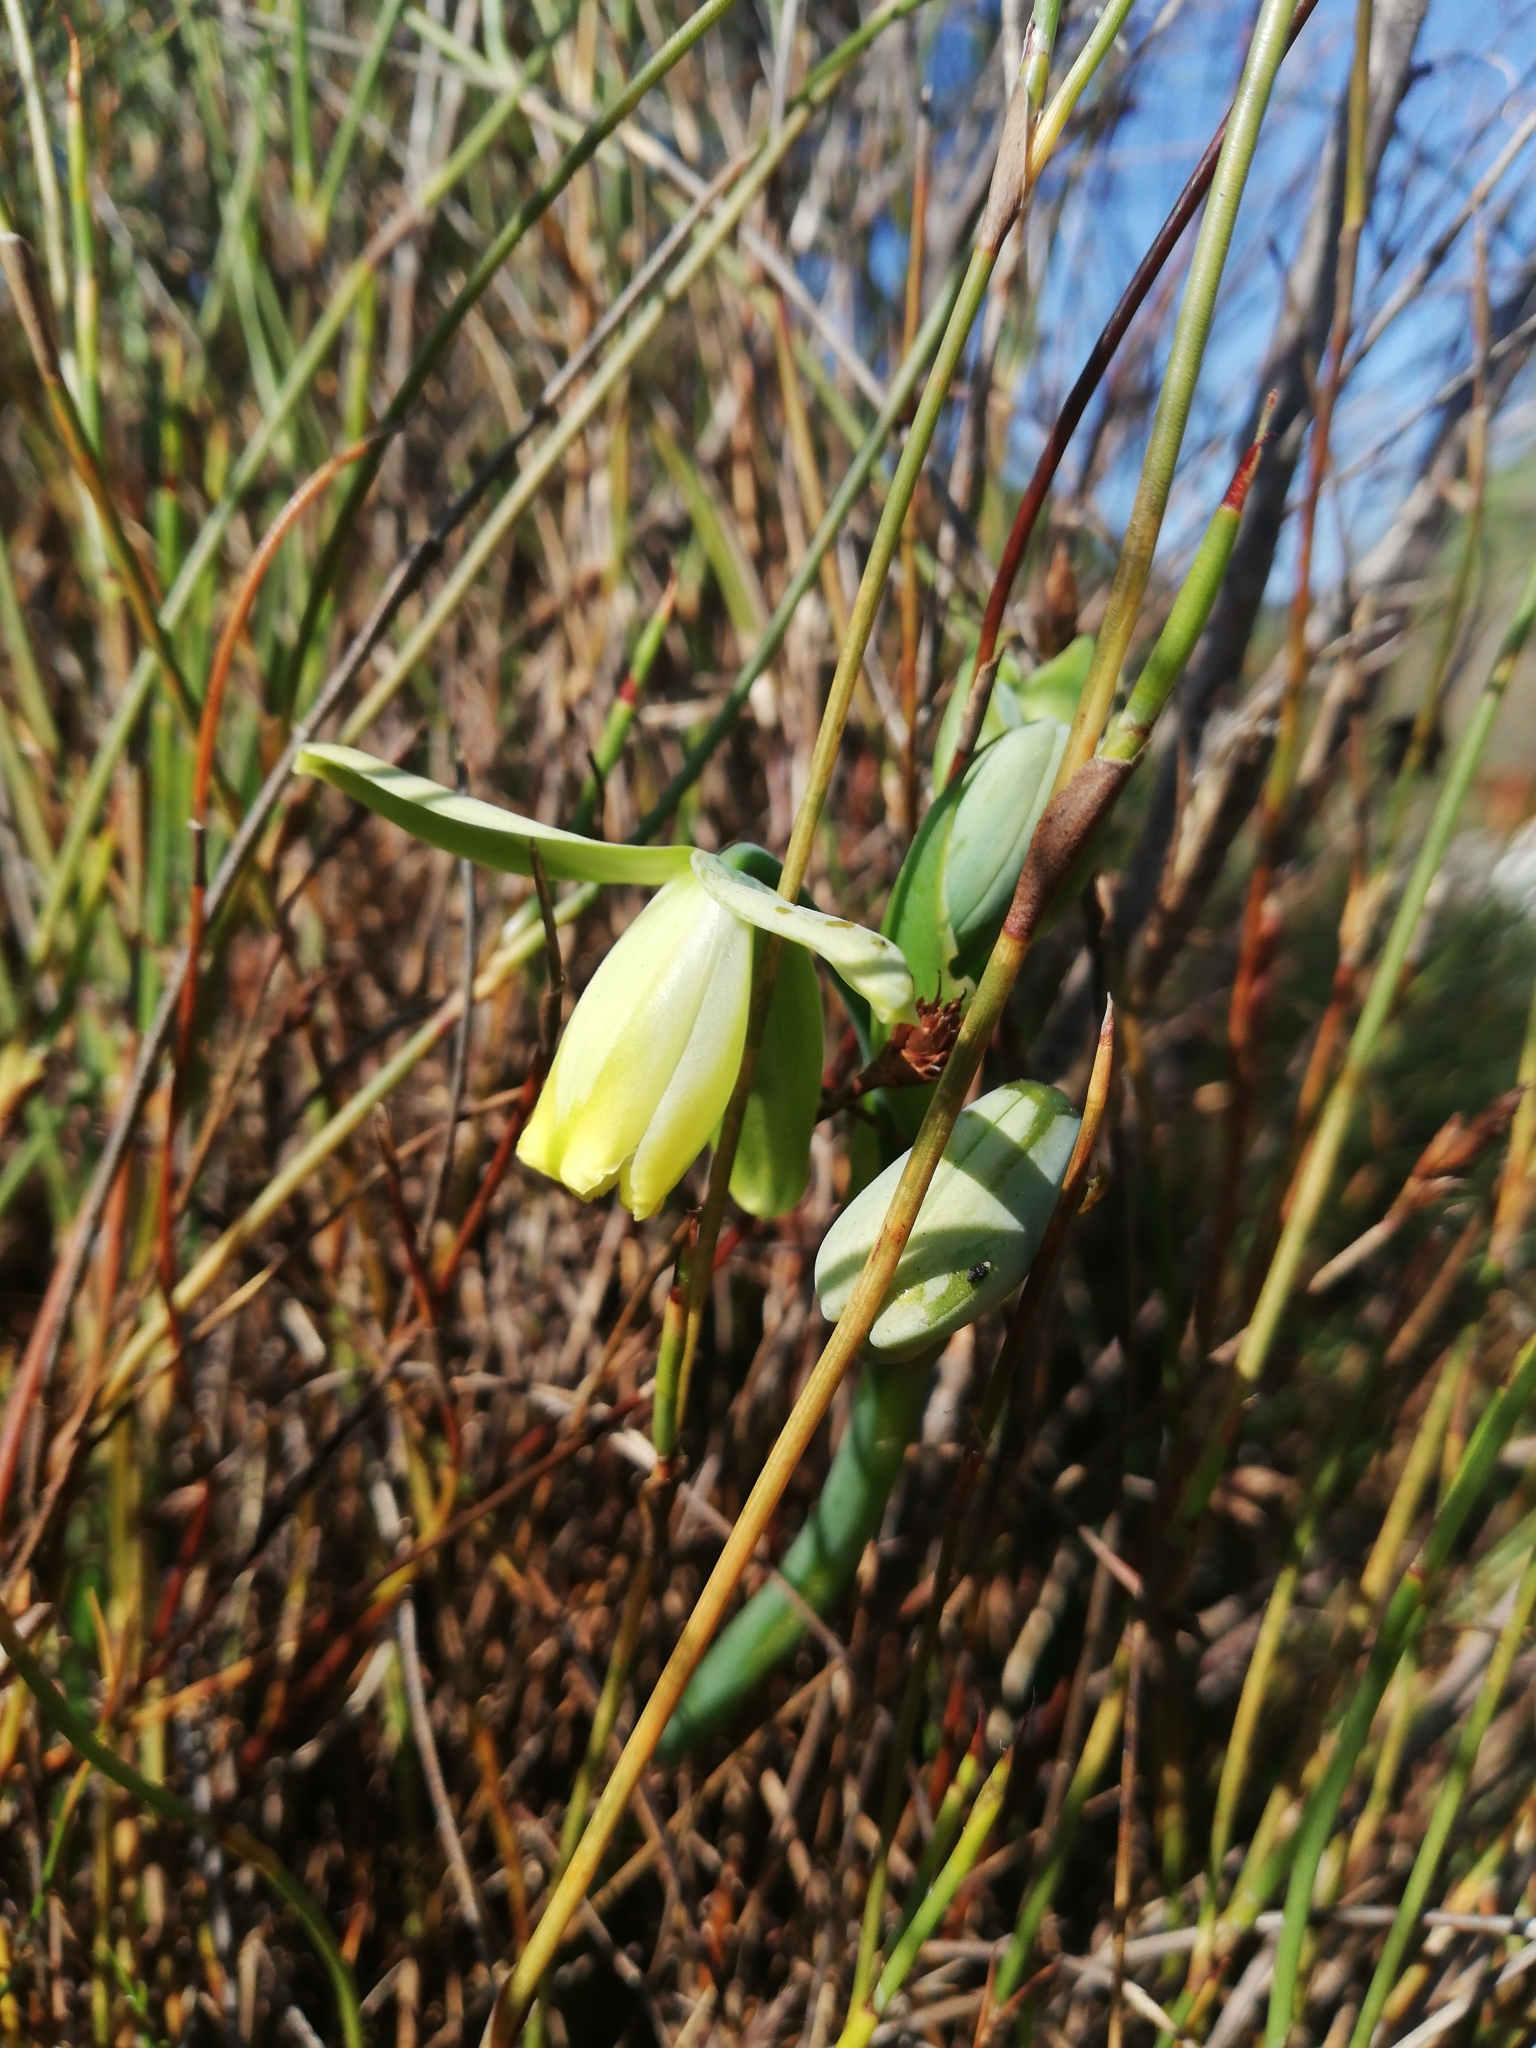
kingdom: Plantae
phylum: Tracheophyta
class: Liliopsida
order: Asparagales
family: Asparagaceae
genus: Albuca
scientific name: Albuca cooperi
